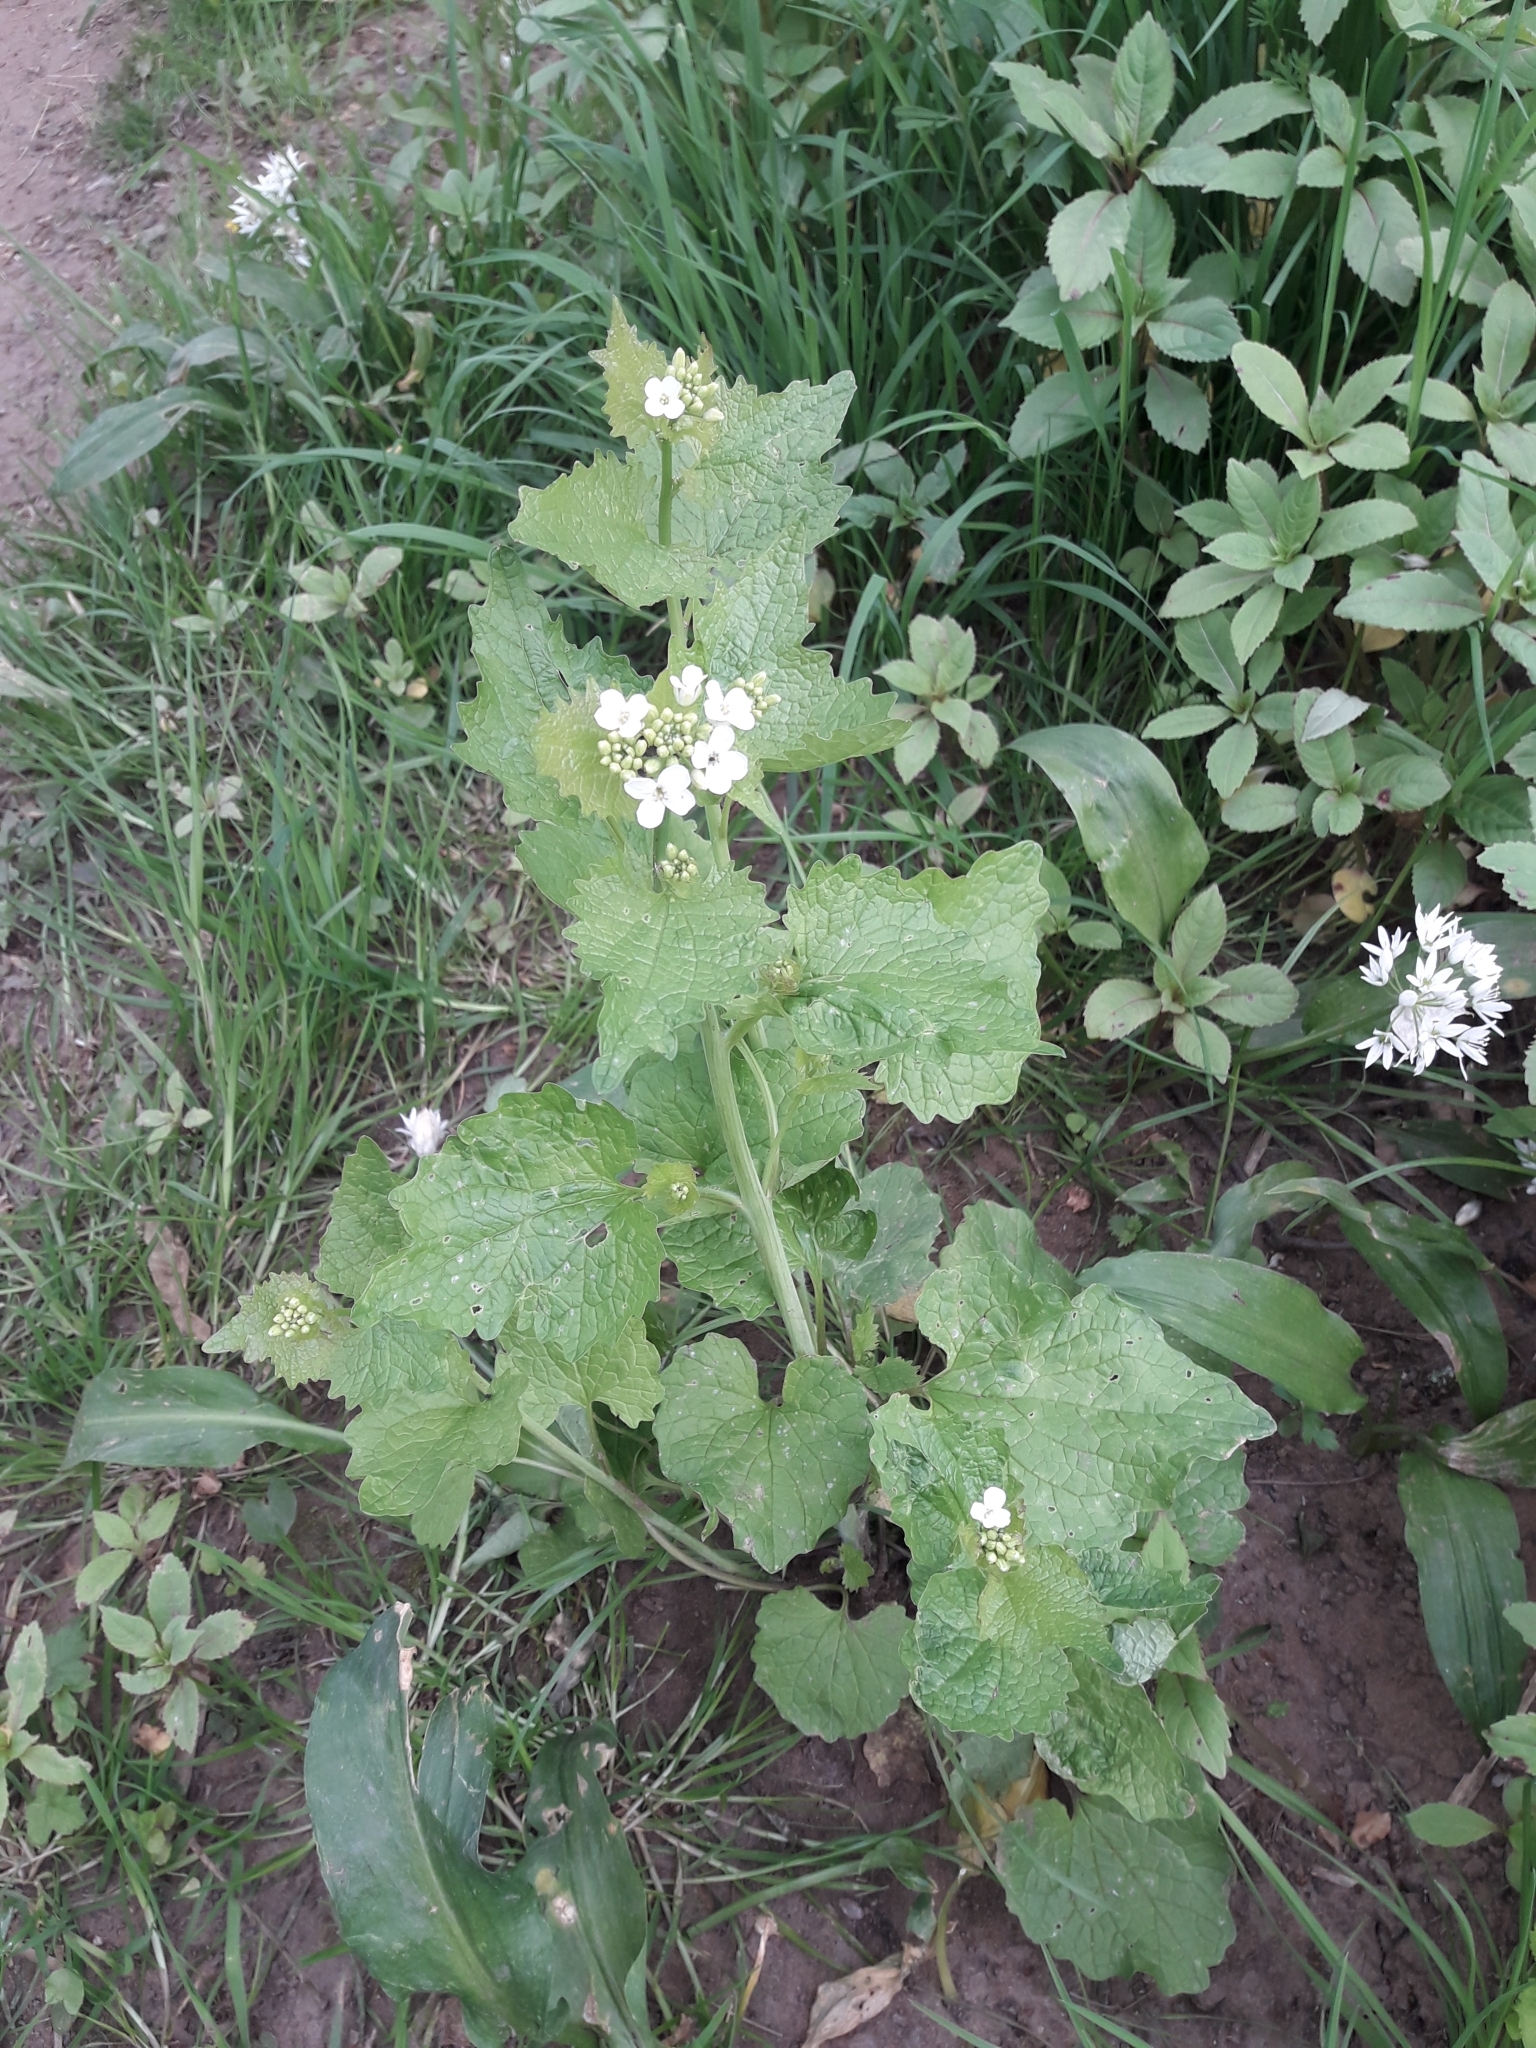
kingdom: Plantae
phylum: Tracheophyta
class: Magnoliopsida
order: Brassicales
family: Brassicaceae
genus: Alliaria
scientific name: Alliaria petiolata
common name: Garlic mustard
